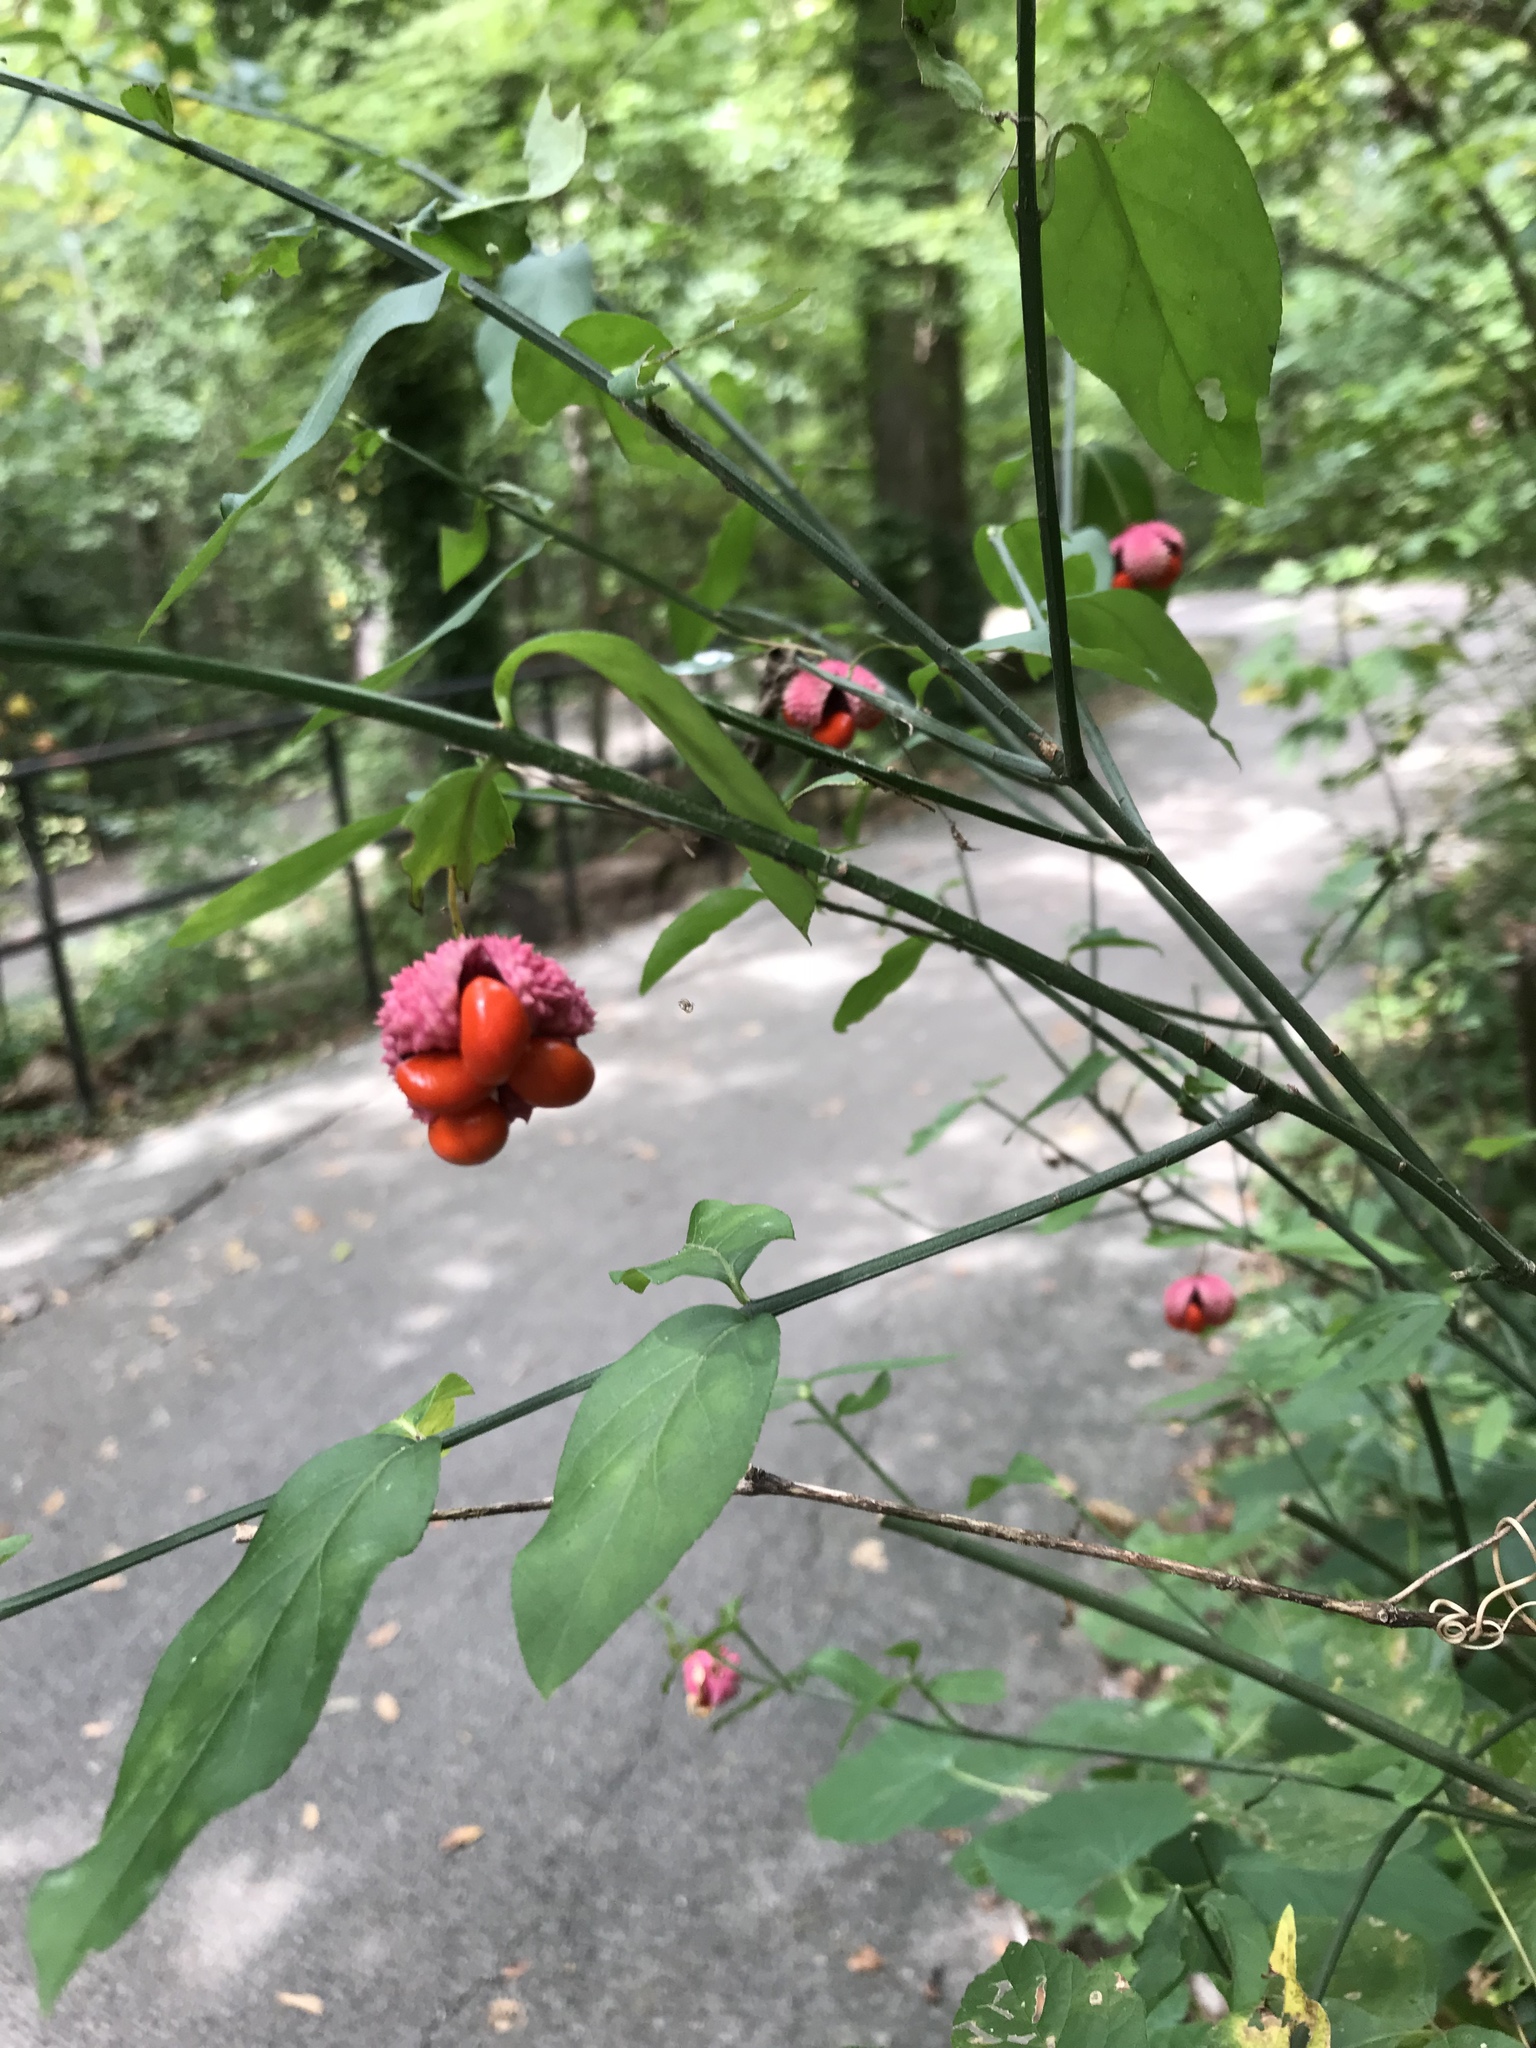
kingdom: Plantae
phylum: Tracheophyta
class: Magnoliopsida
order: Celastrales
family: Celastraceae
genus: Euonymus
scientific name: Euonymus americanus
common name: Bursting-heart
